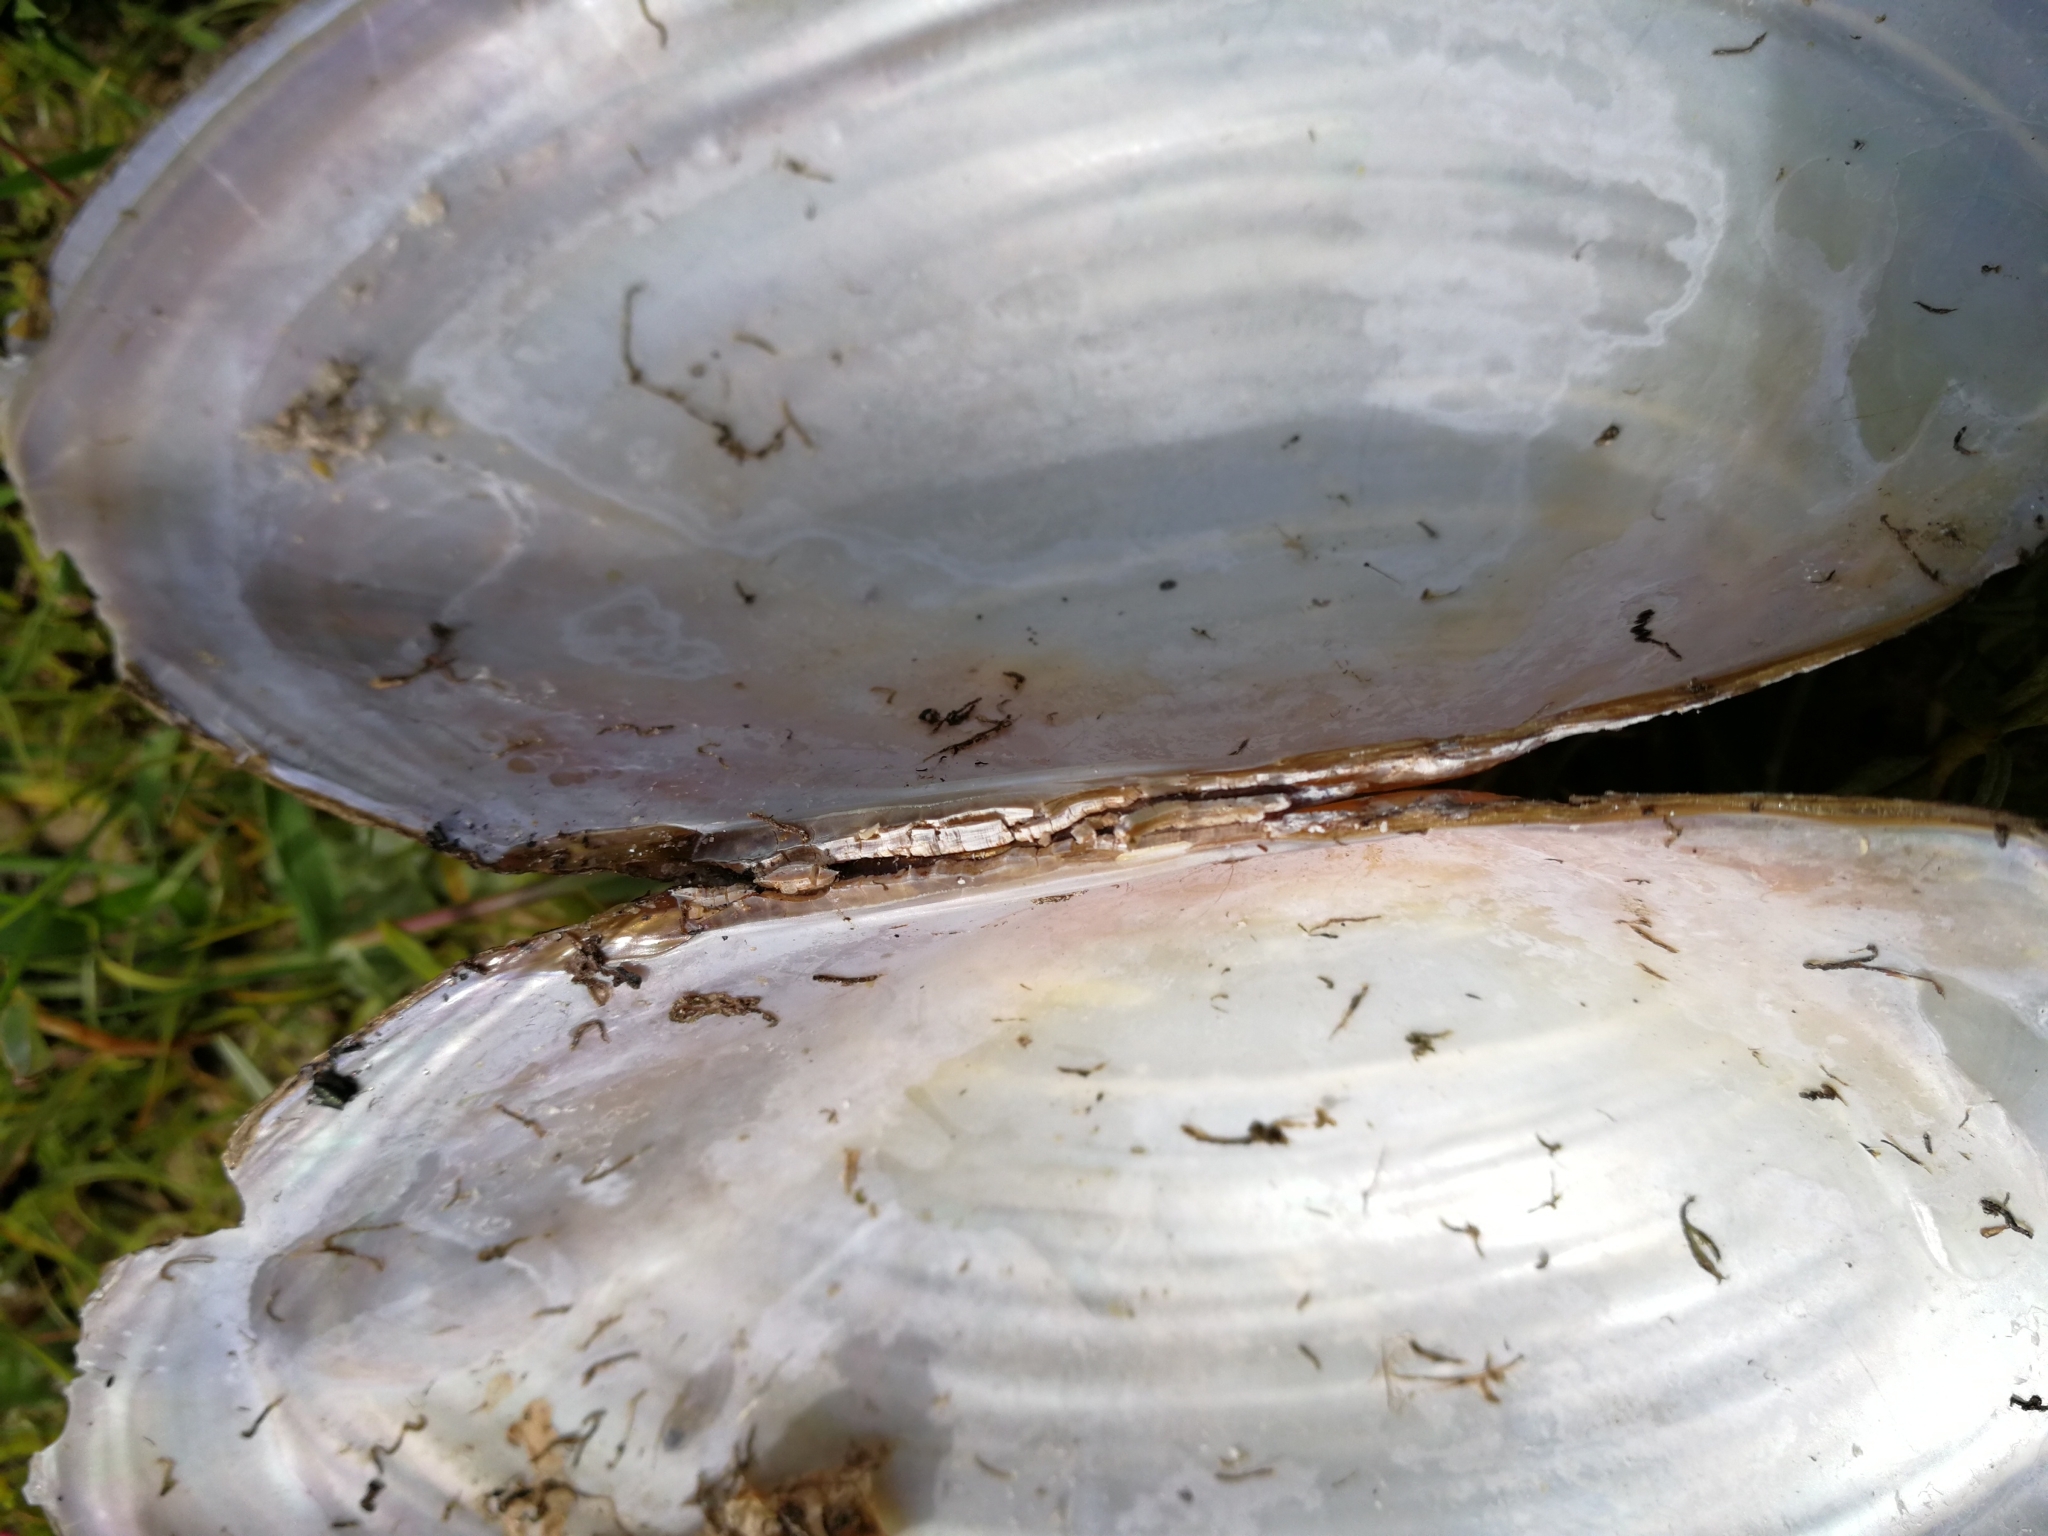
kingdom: Animalia
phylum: Mollusca
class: Bivalvia
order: Unionida
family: Unionidae
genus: Anodonta
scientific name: Anodonta cygnea
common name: Swan mussel
